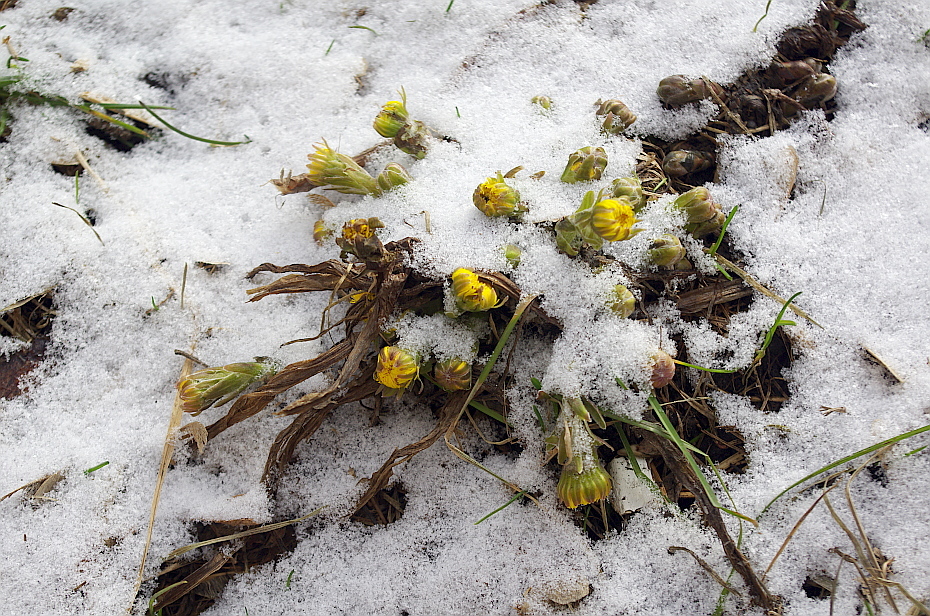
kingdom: Plantae
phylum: Tracheophyta
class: Magnoliopsida
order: Asterales
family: Asteraceae
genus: Tussilago
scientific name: Tussilago farfara
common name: Coltsfoot
